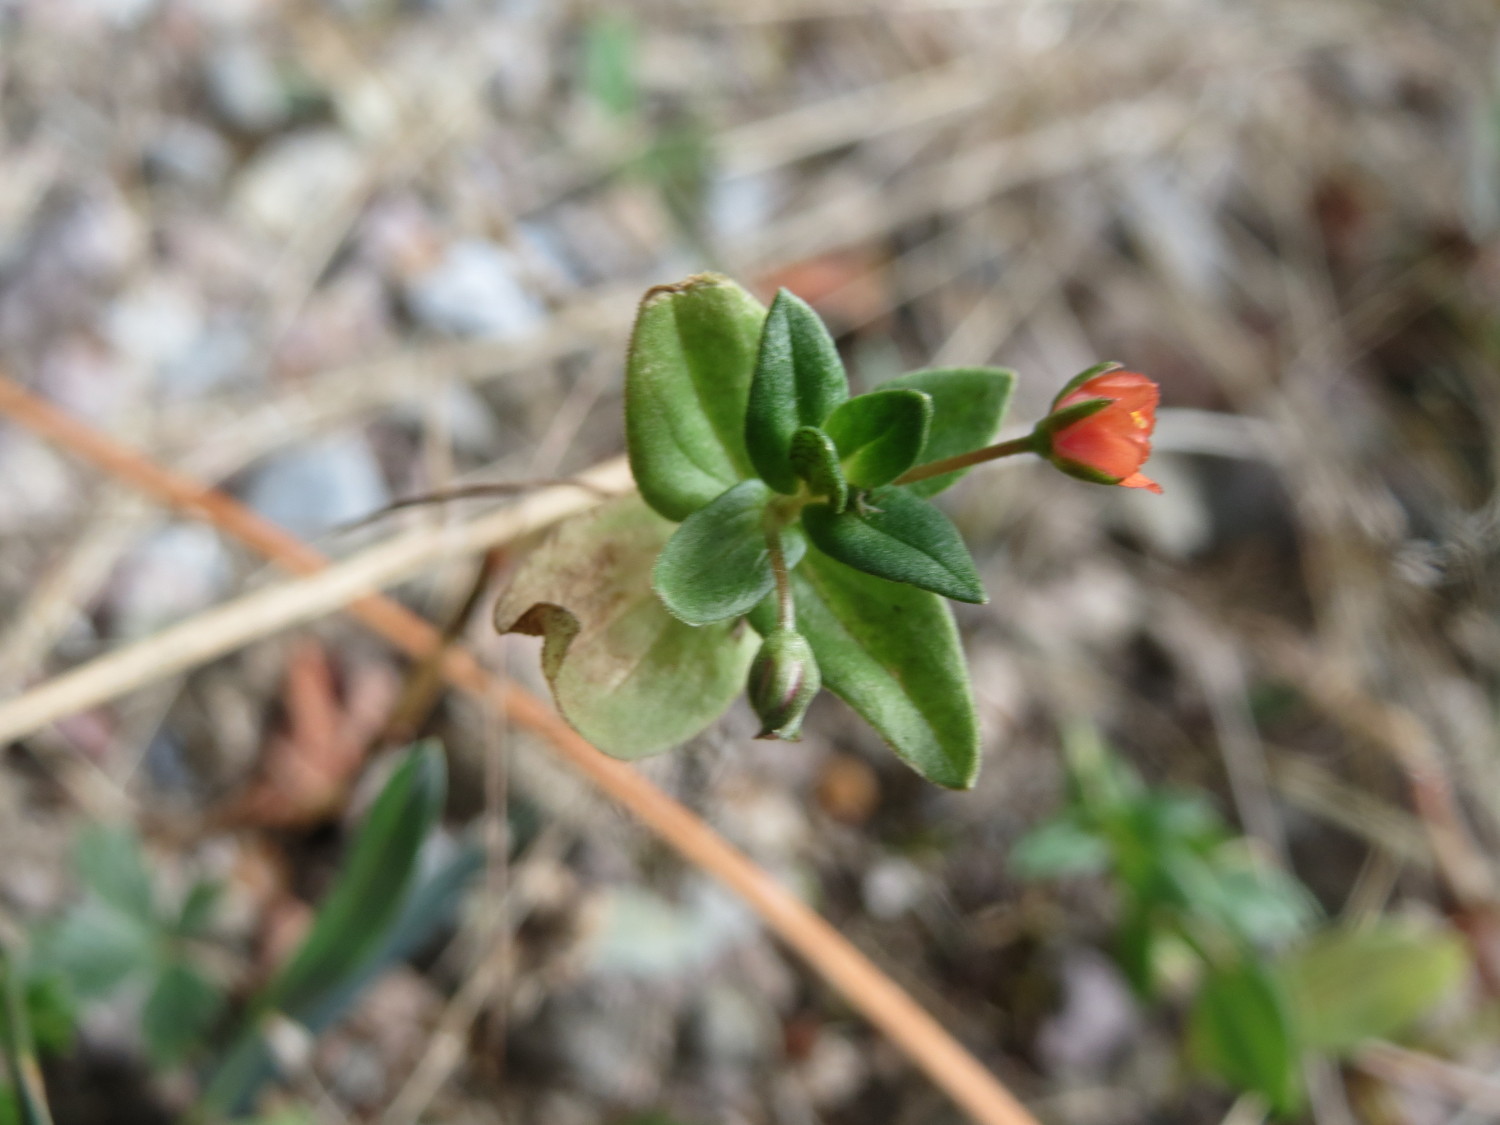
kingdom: Plantae
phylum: Tracheophyta
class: Magnoliopsida
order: Ericales
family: Primulaceae
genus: Lysimachia
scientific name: Lysimachia arvensis
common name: Scarlet pimpernel
